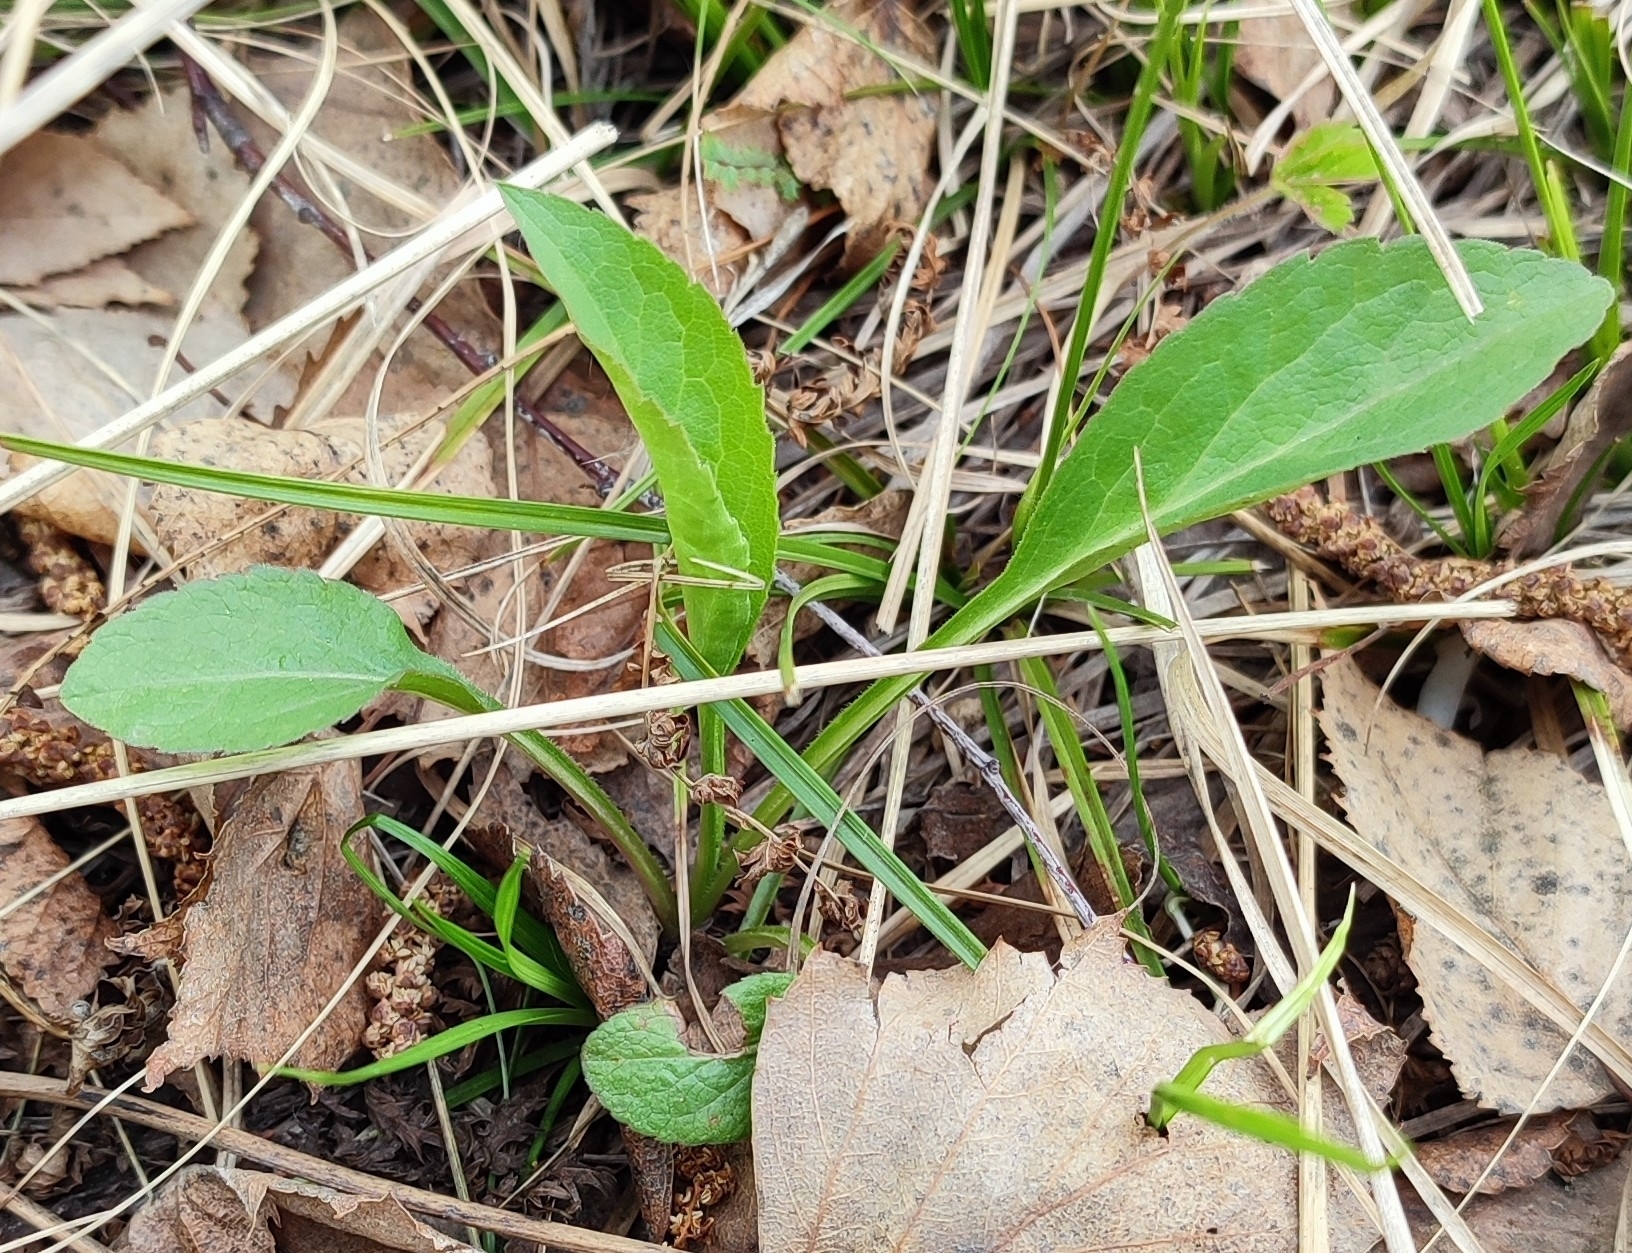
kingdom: Plantae
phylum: Tracheophyta
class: Magnoliopsida
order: Asterales
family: Asteraceae
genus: Solidago
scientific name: Solidago virgaurea
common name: Goldenrod
